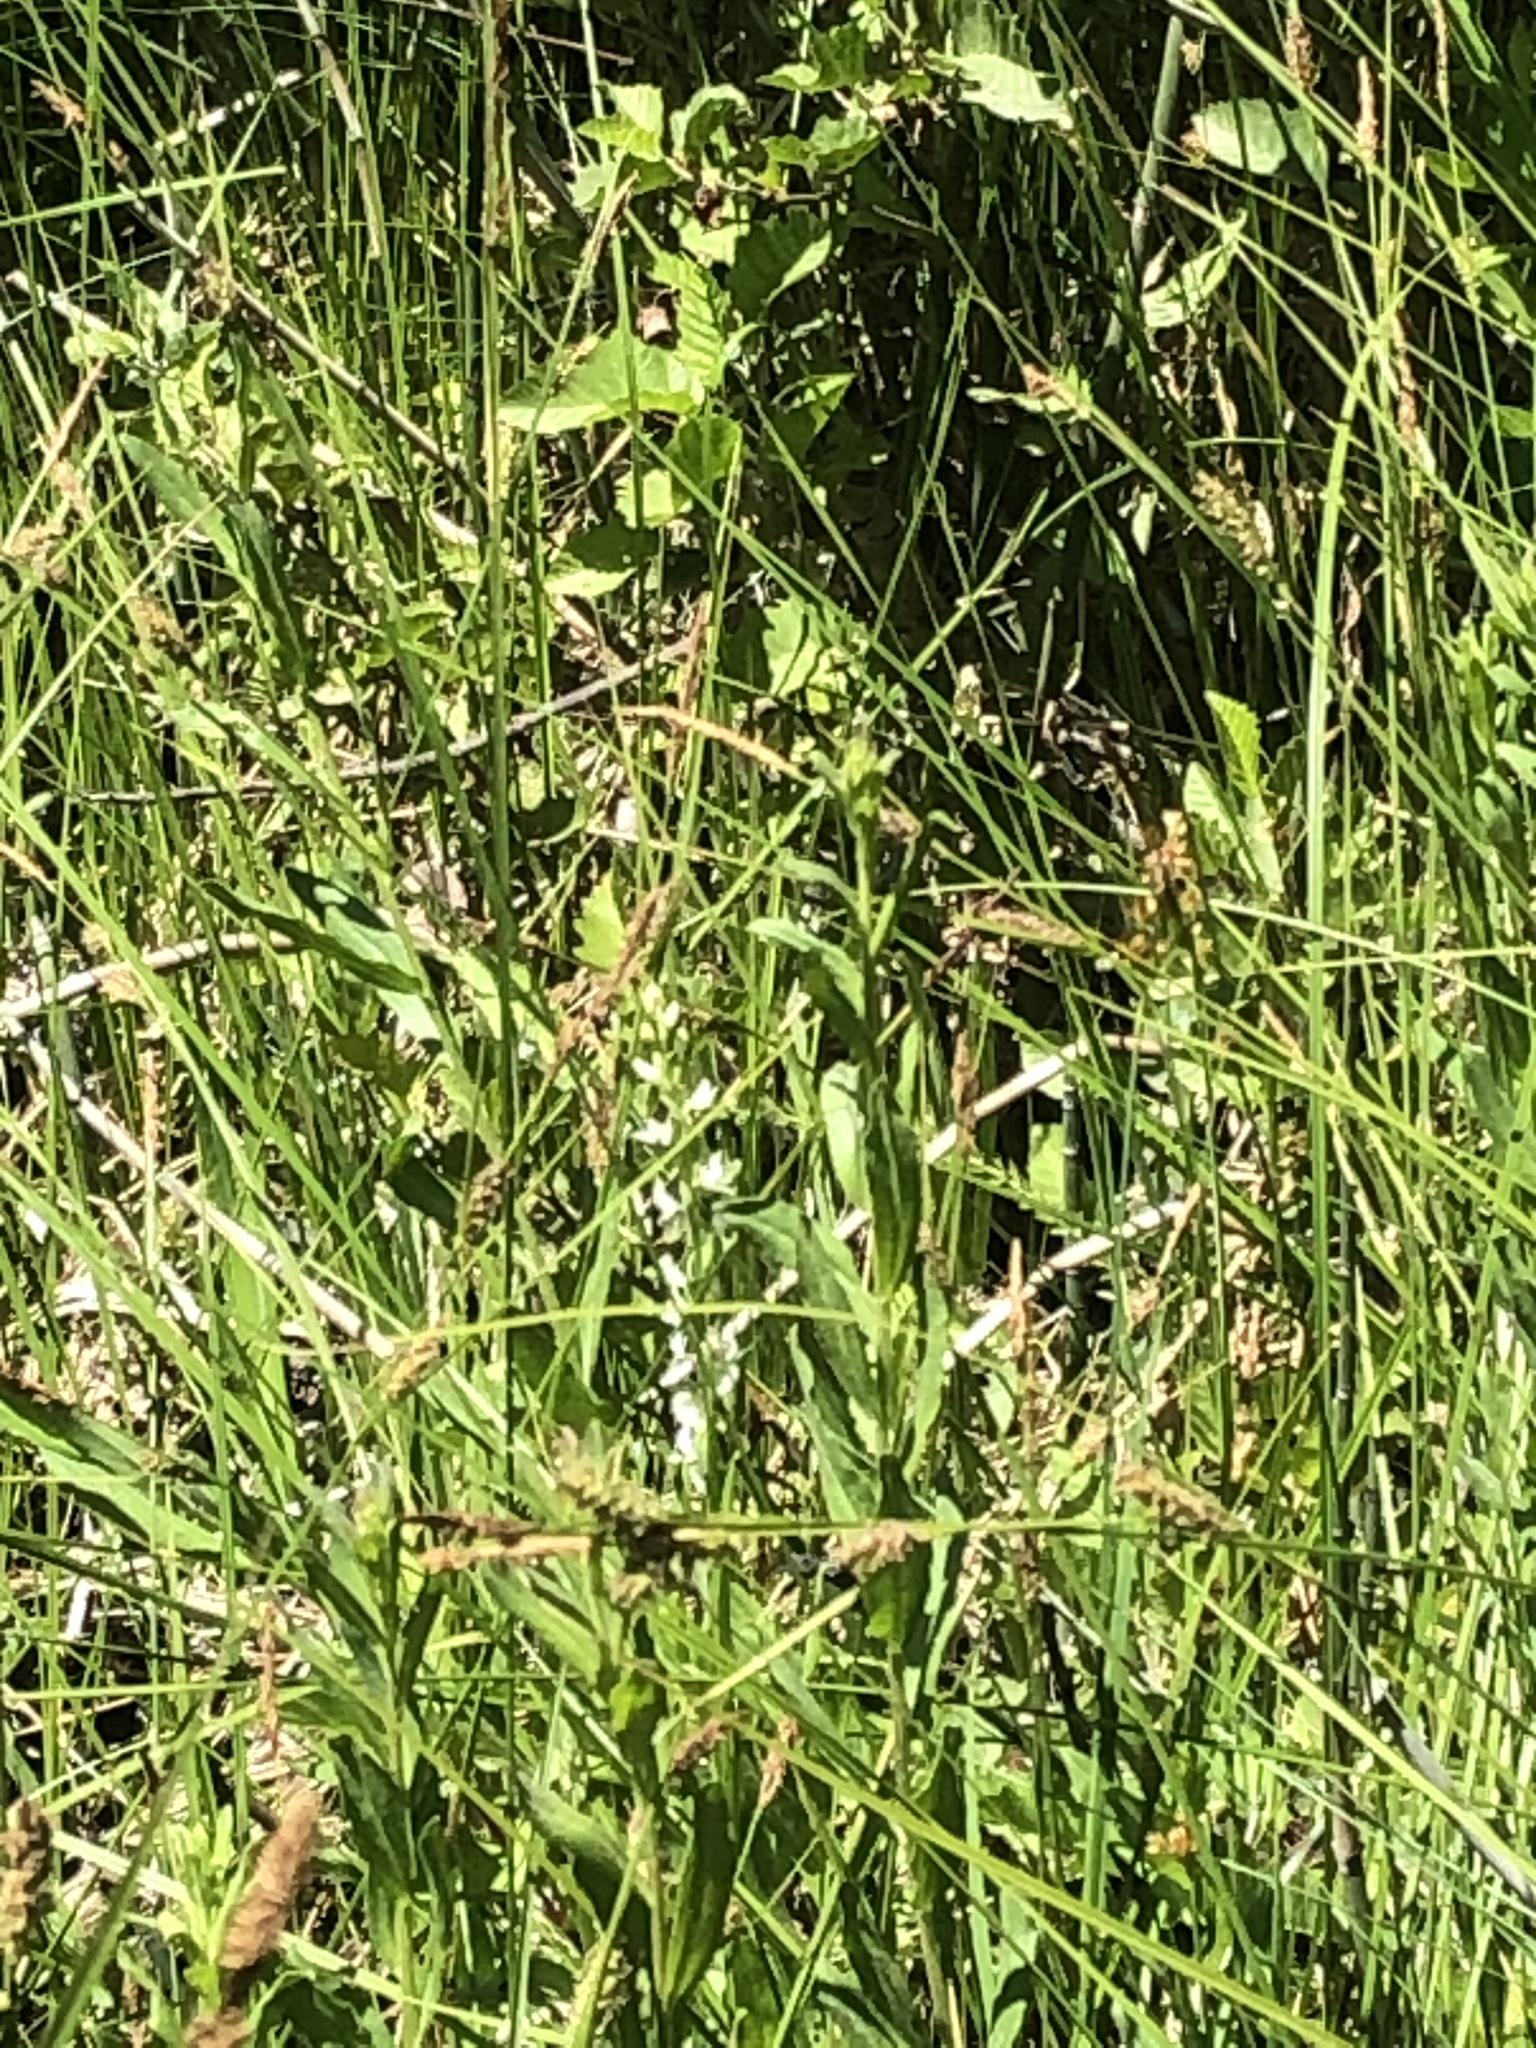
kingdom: Plantae
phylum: Tracheophyta
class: Liliopsida
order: Asparagales
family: Orchidaceae
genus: Platanthera
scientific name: Platanthera dilatata
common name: Bog candles
